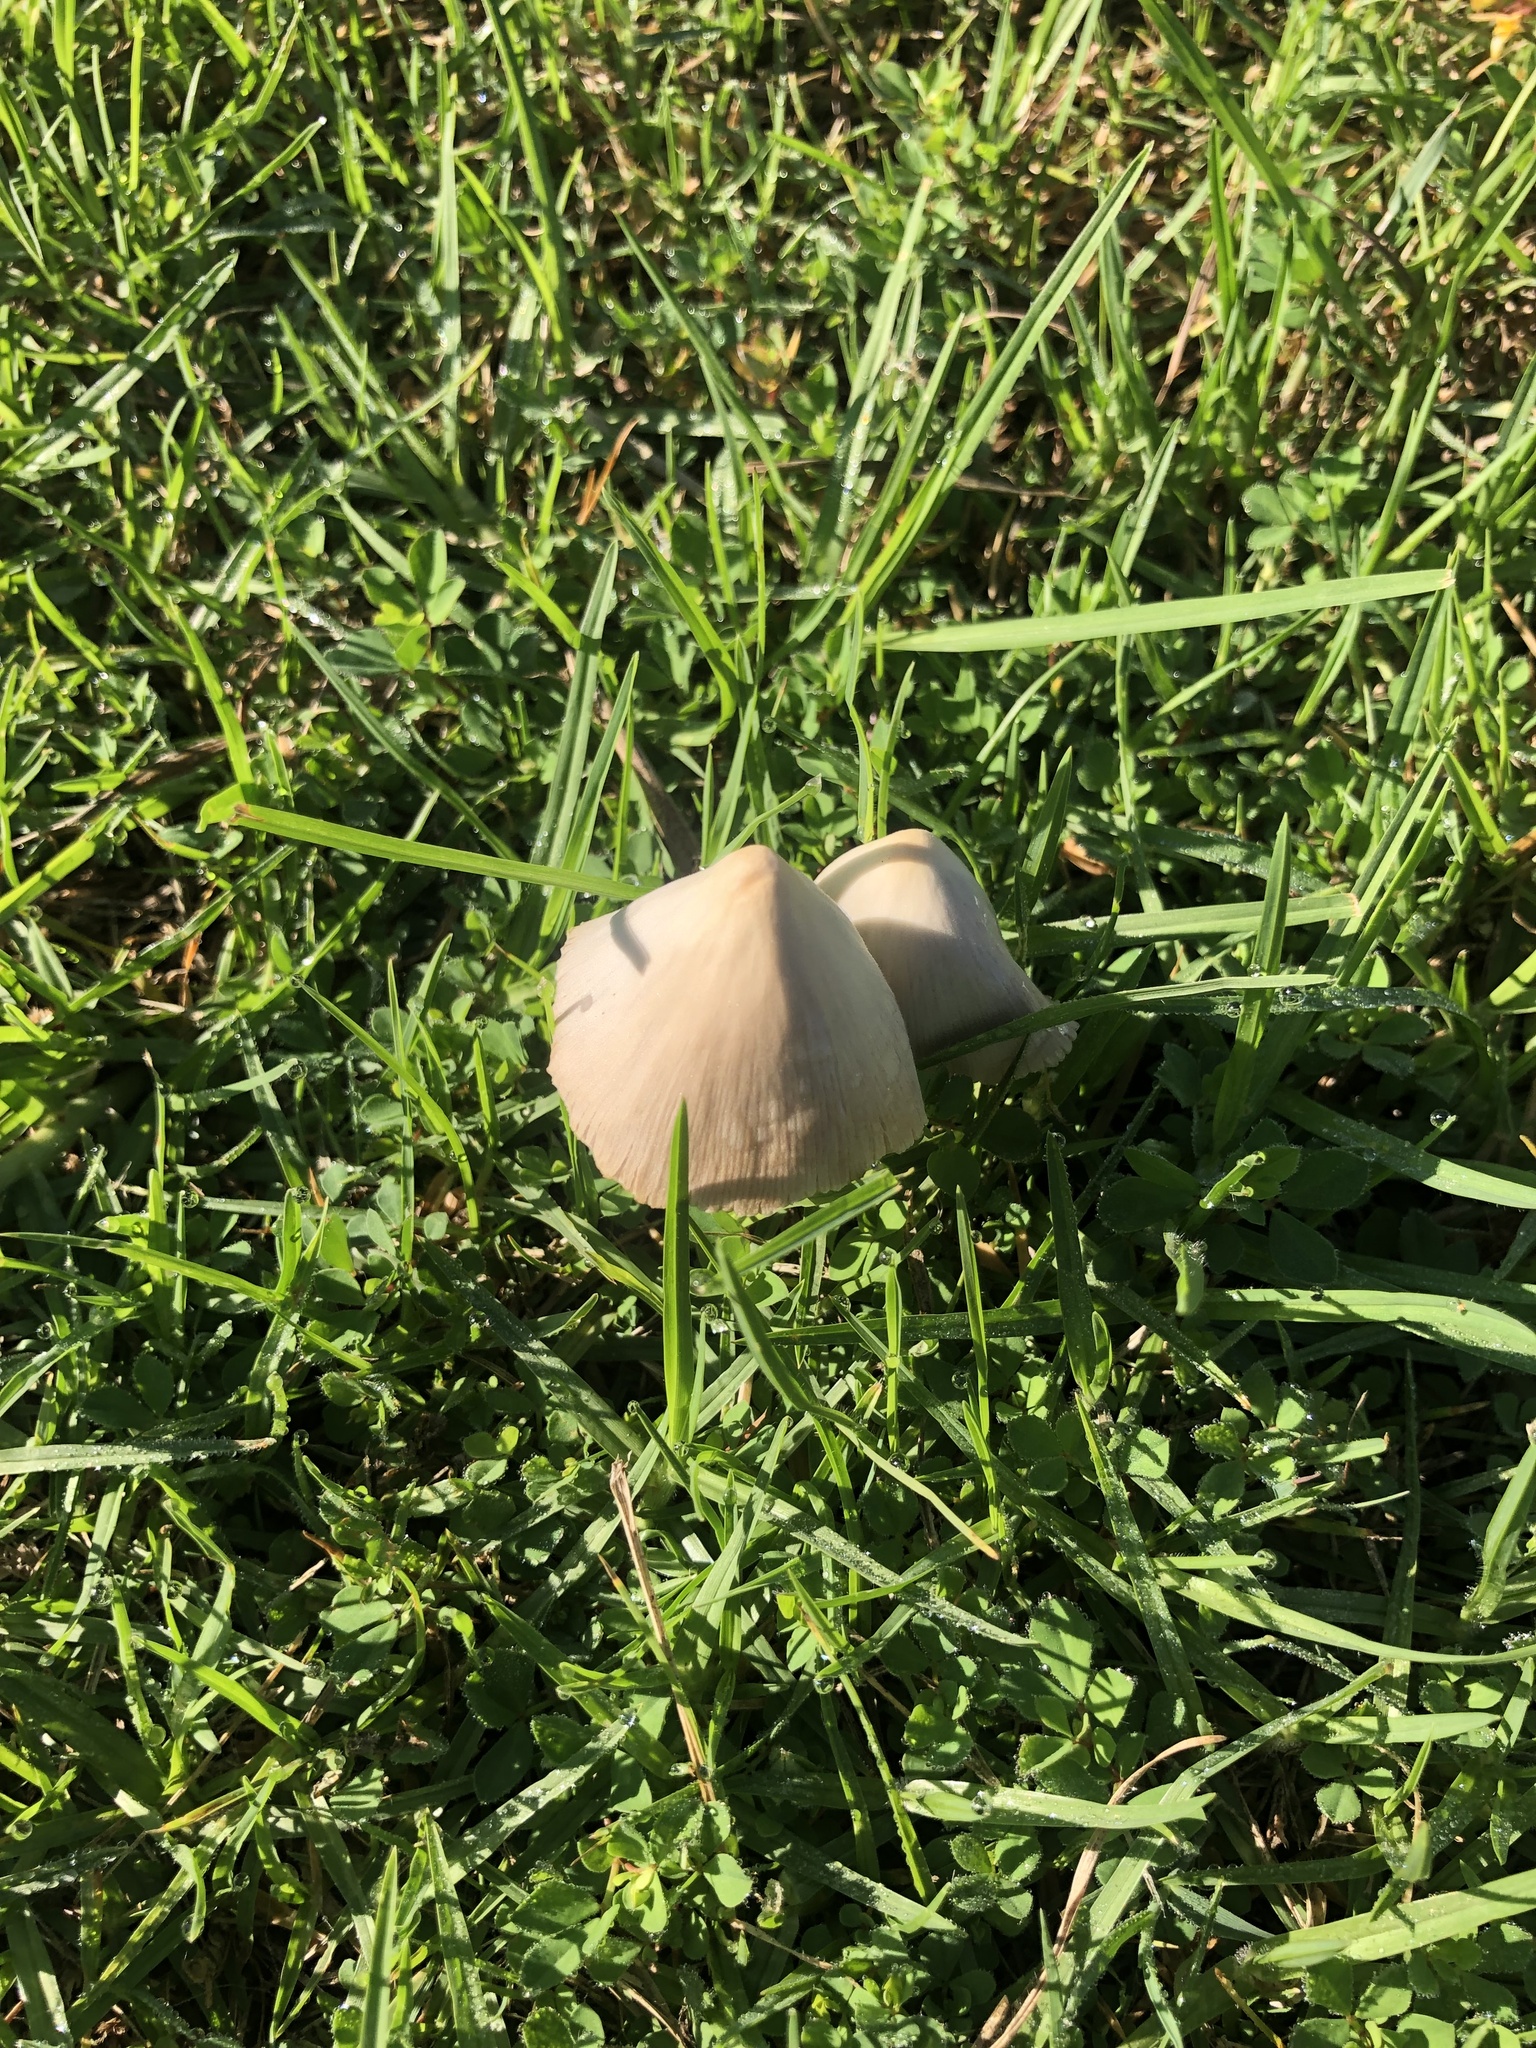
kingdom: Fungi
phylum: Basidiomycota
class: Agaricomycetes
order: Agaricales
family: Bolbitiaceae
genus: Conocybe
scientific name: Conocybe apala
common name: Milky conecap
